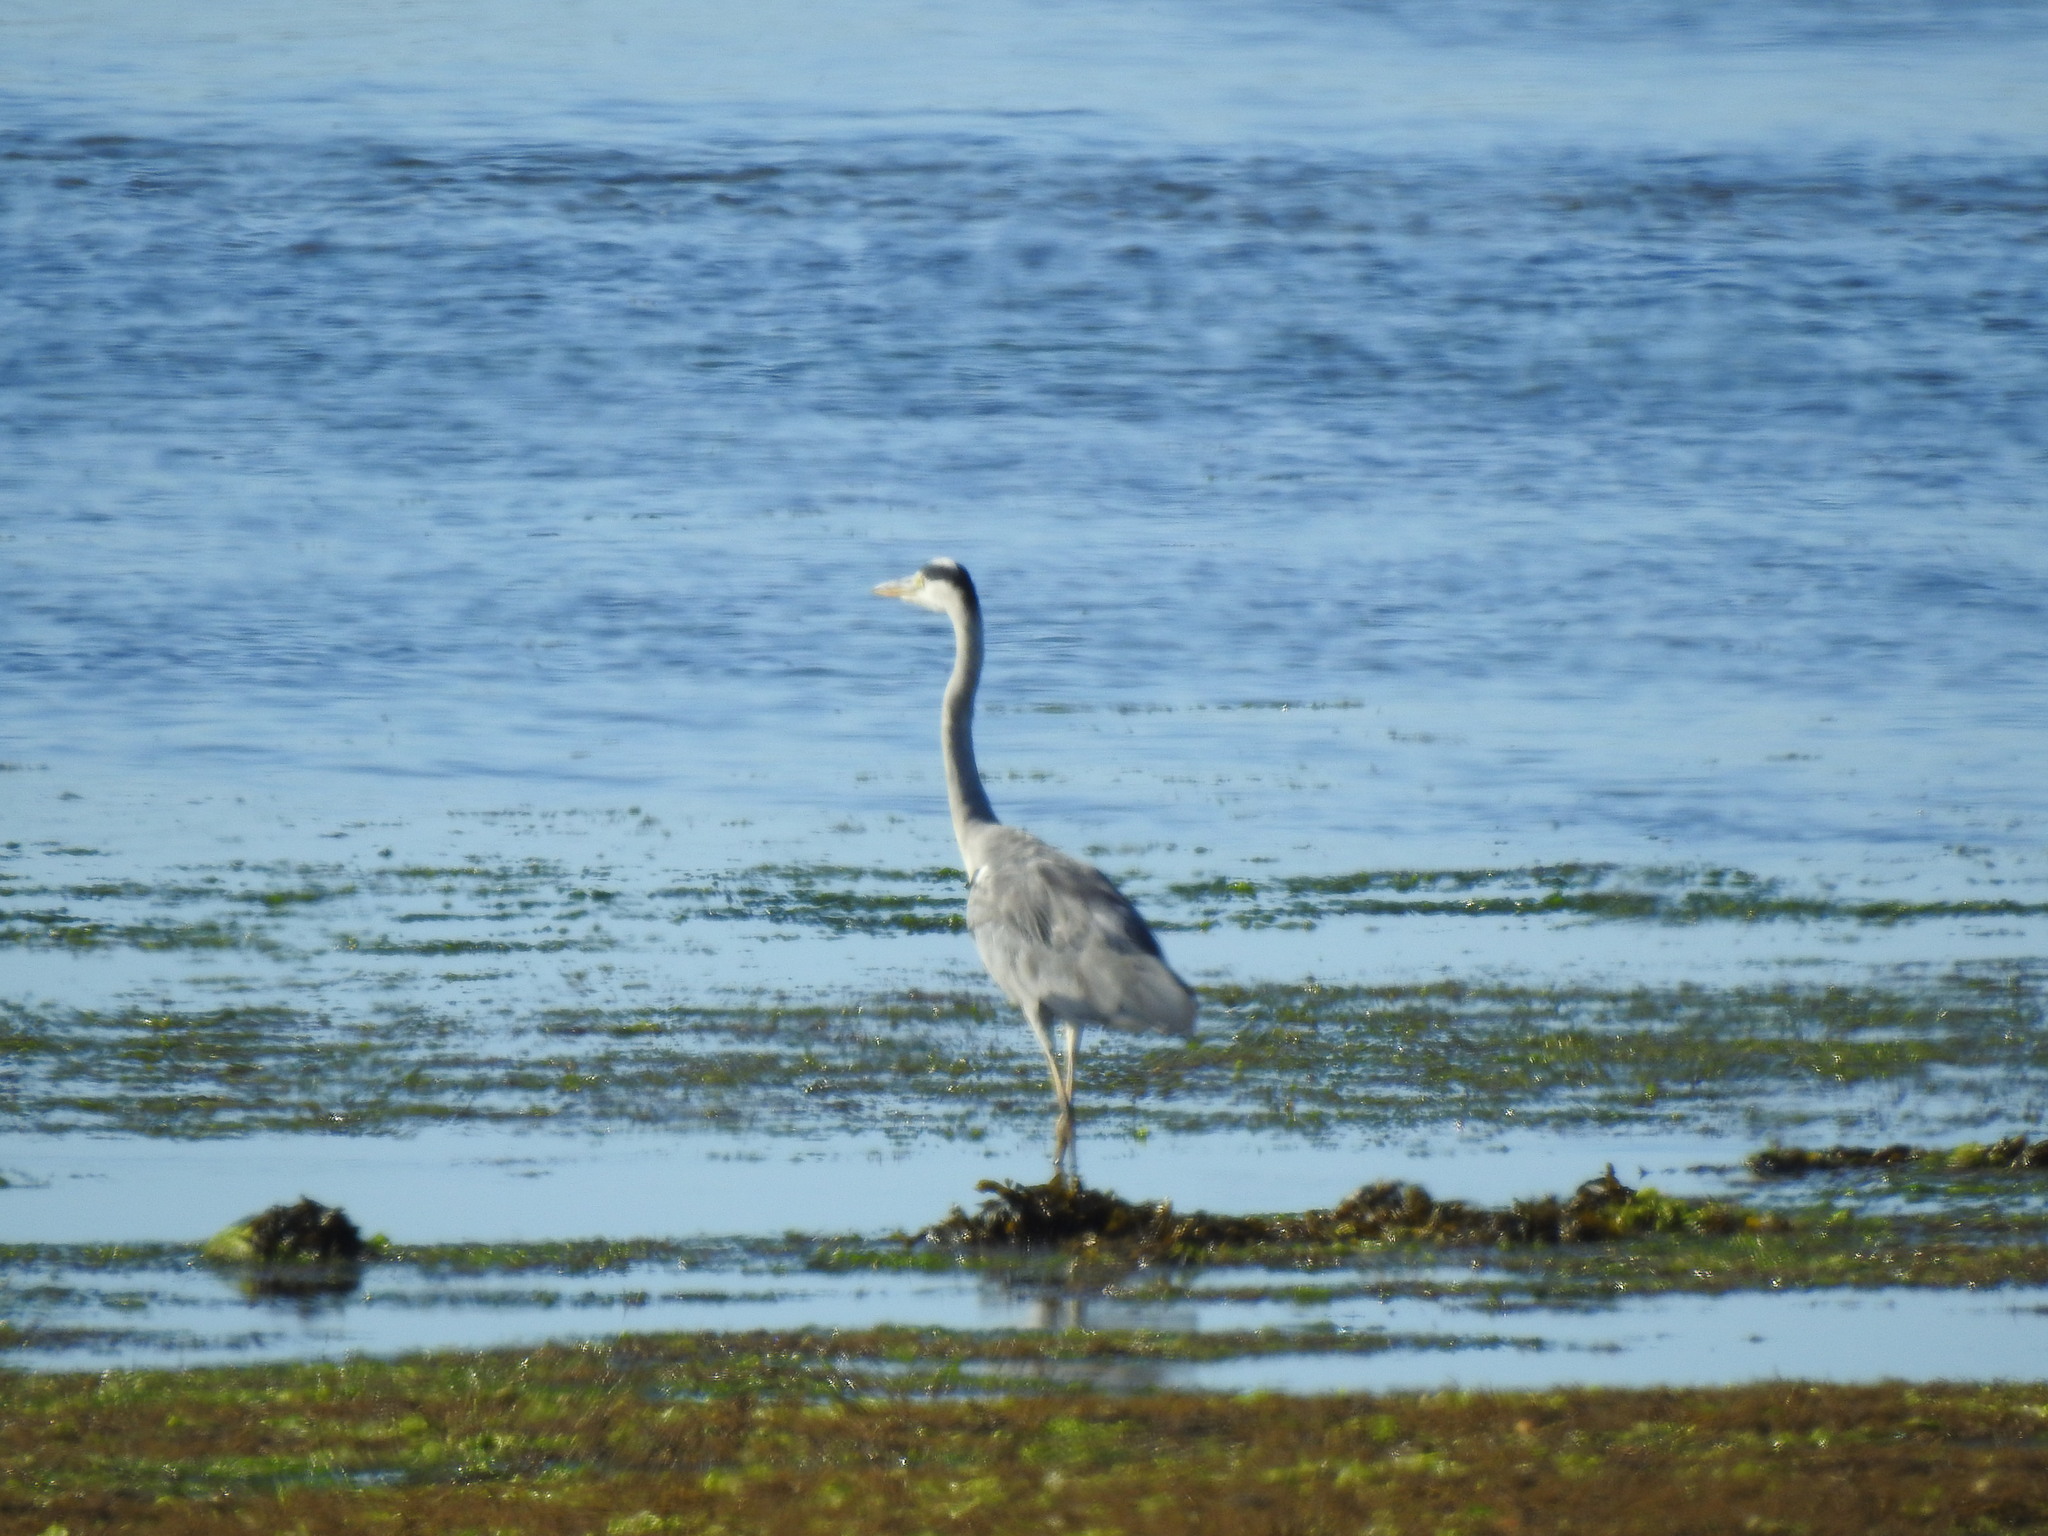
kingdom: Animalia
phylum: Chordata
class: Aves
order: Pelecaniformes
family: Ardeidae
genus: Ardea
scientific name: Ardea cinerea
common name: Grey heron
